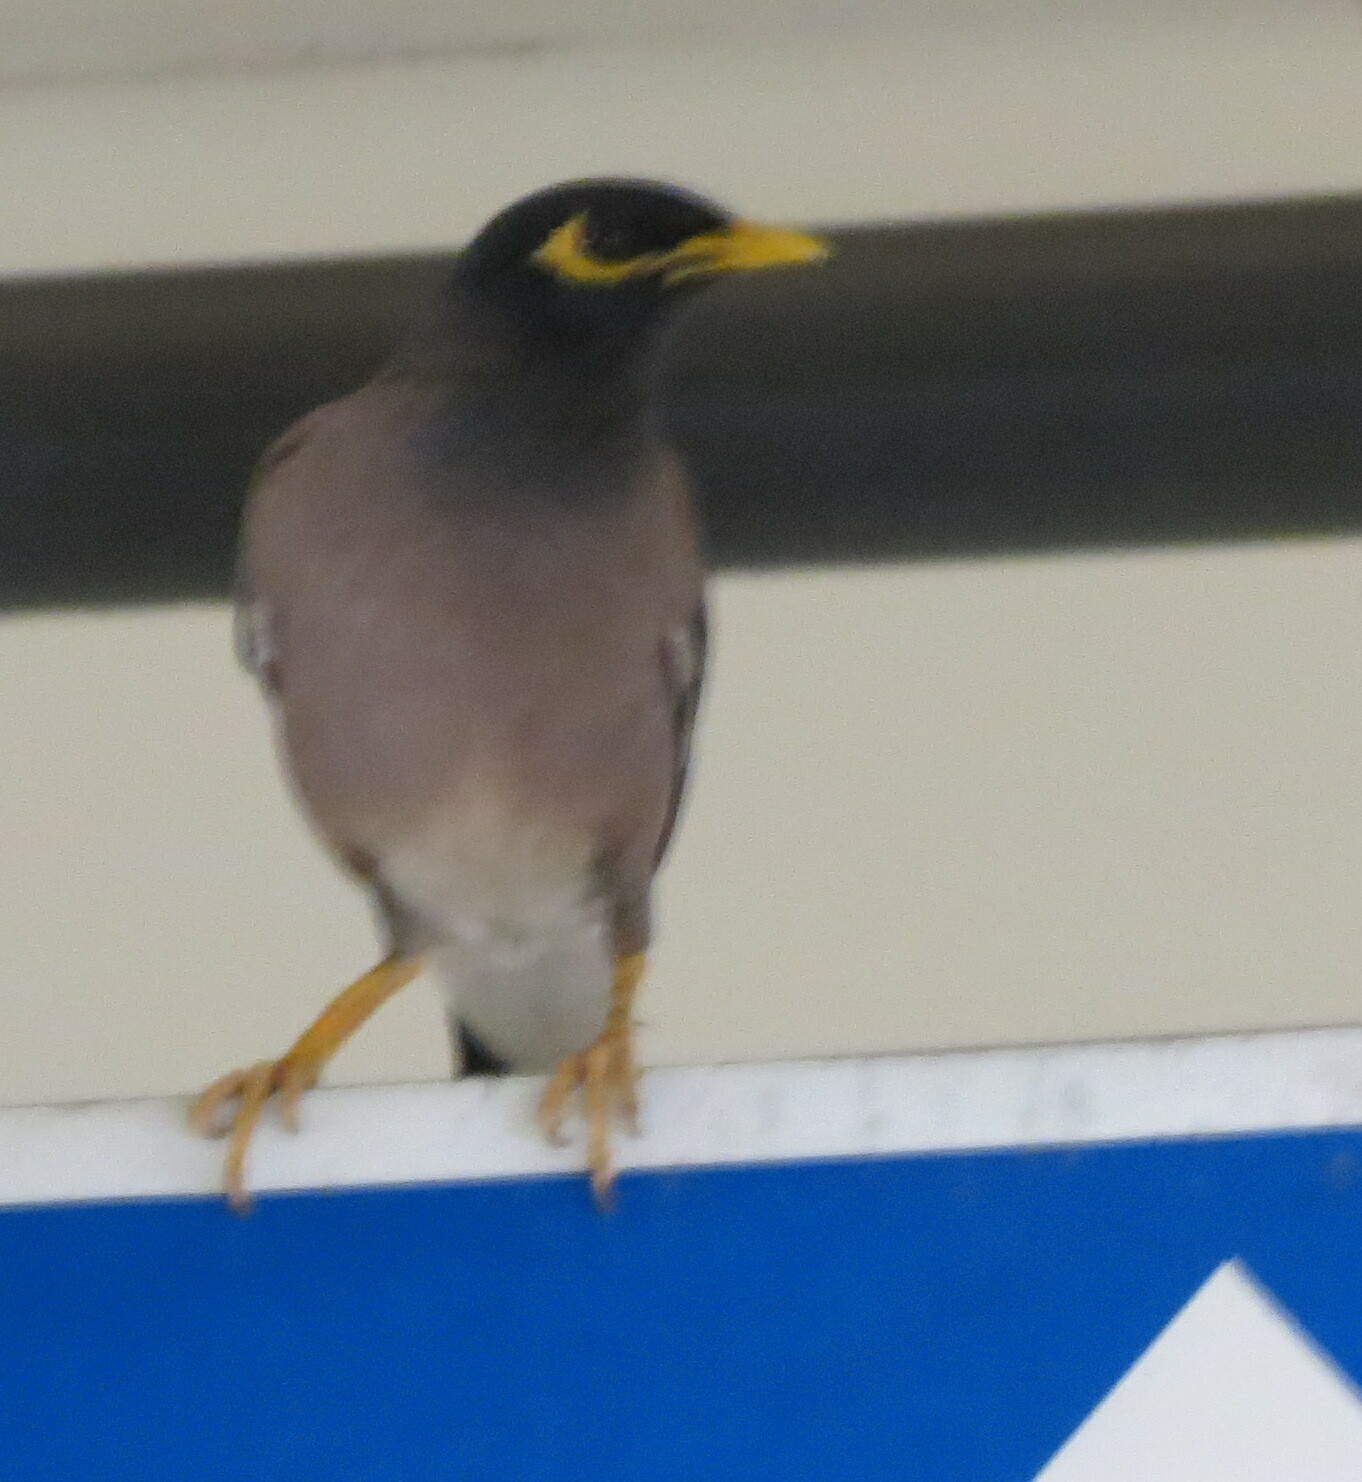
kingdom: Animalia
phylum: Chordata
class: Aves
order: Passeriformes
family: Sturnidae
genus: Acridotheres
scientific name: Acridotheres tristis
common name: Common myna
